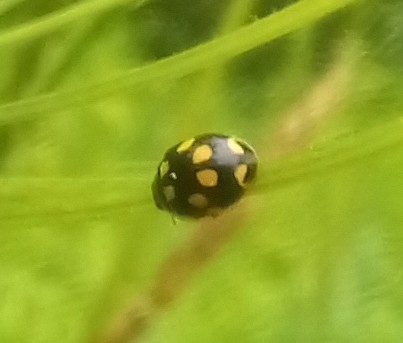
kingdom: Animalia
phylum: Arthropoda
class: Insecta
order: Coleoptera
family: Coccinellidae
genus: Propylaea
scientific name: Propylaea quatuordecimpunctata
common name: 14-spotted ladybird beetle
